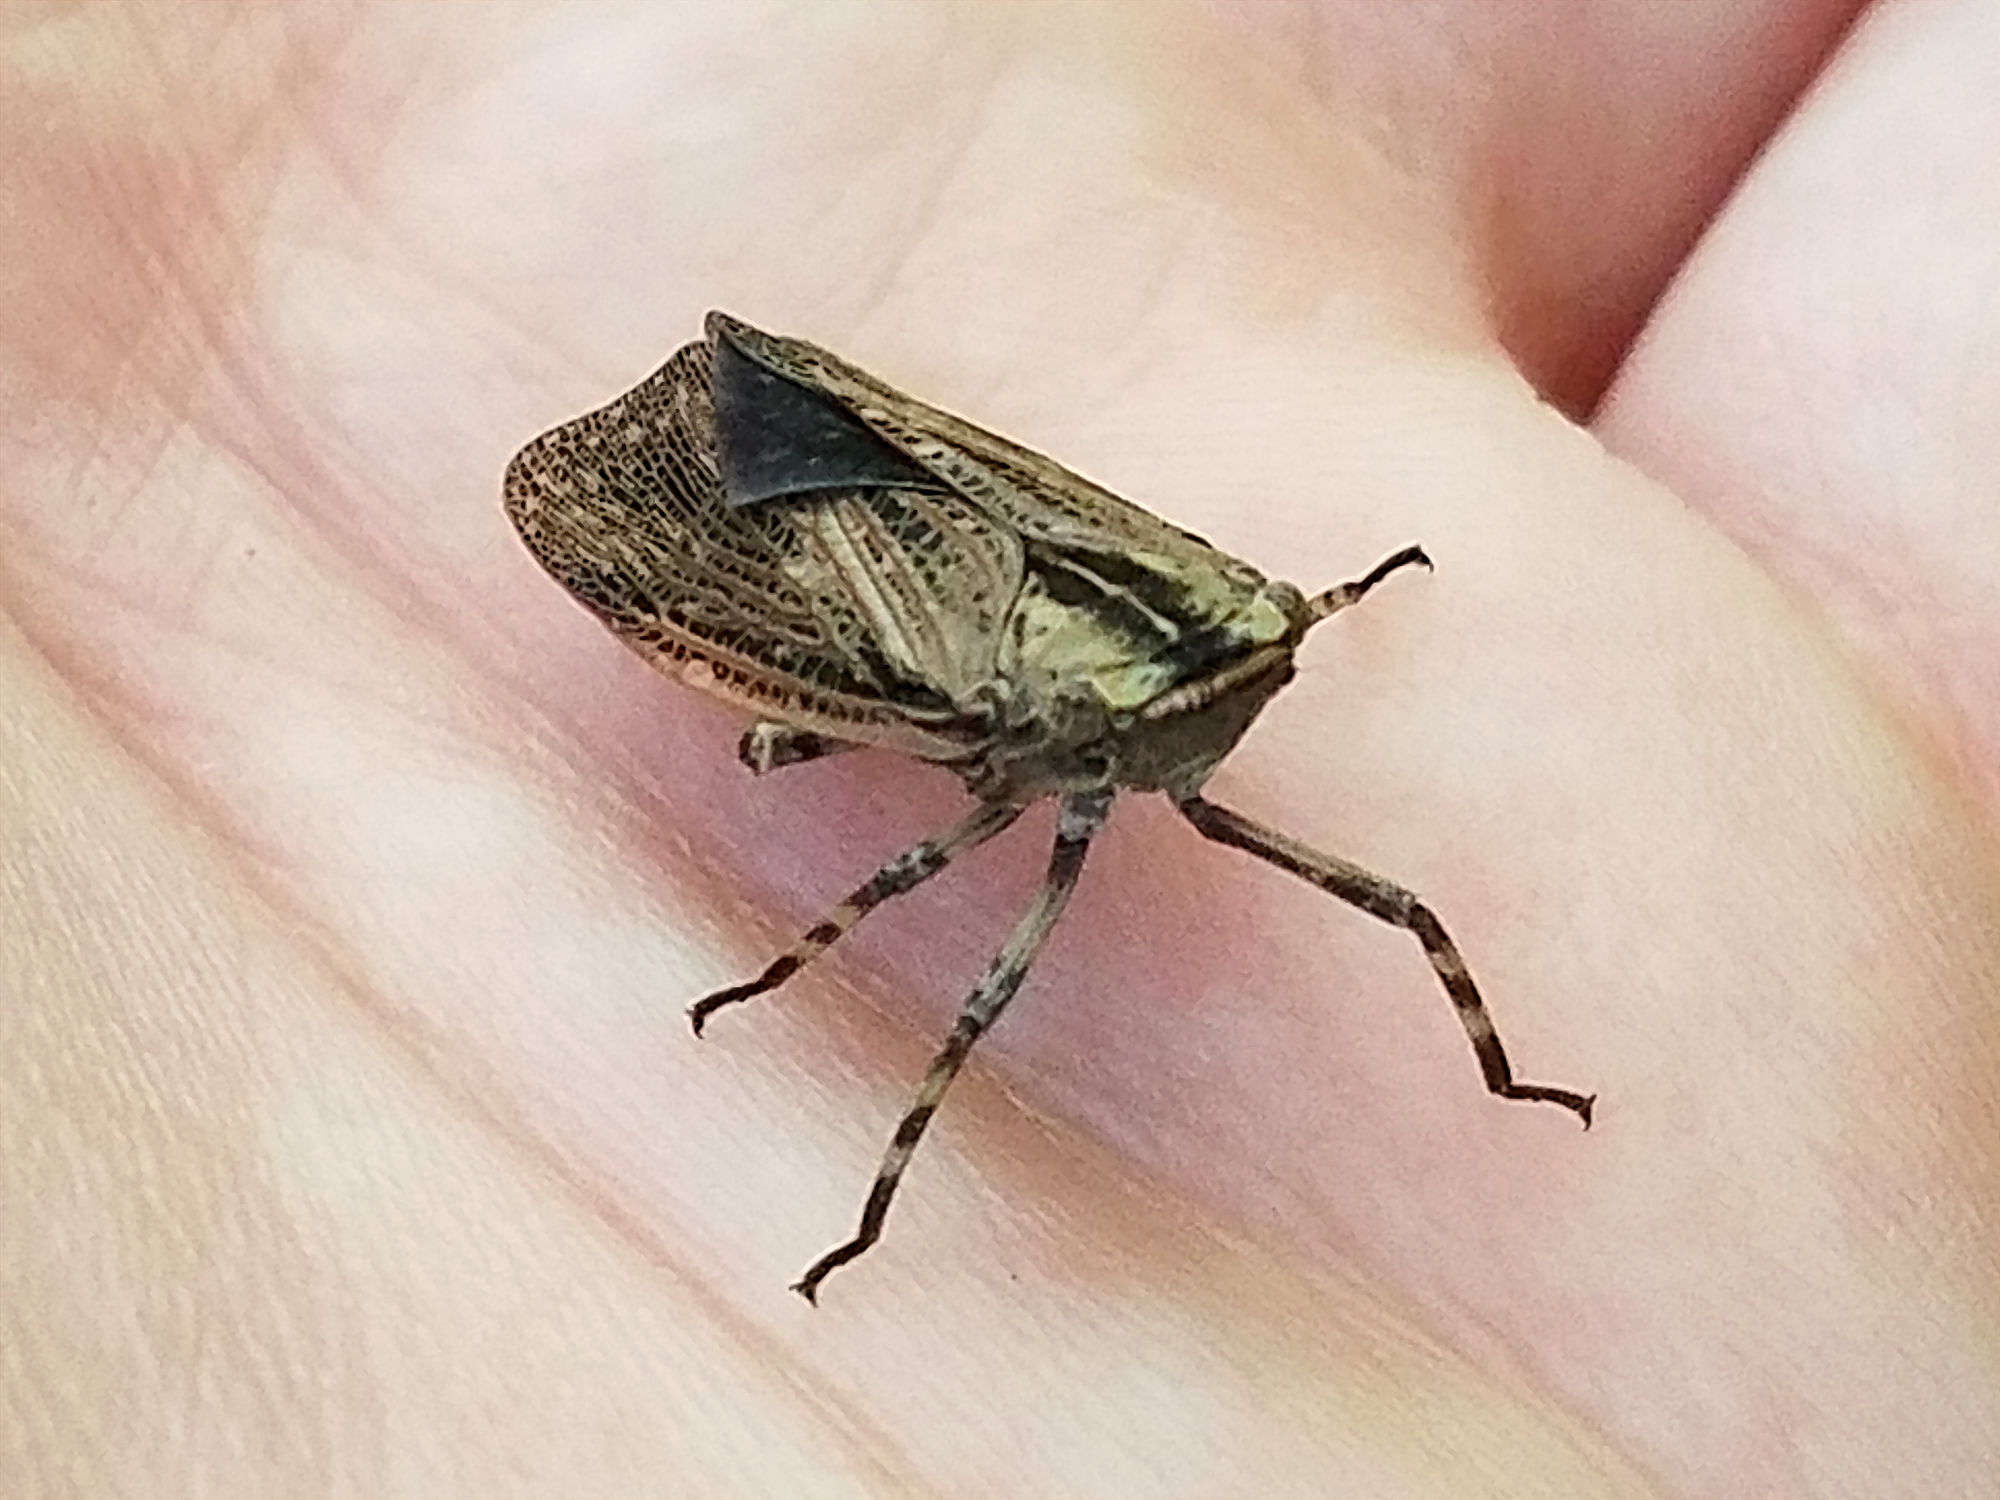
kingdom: Animalia
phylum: Arthropoda
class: Insecta
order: Hemiptera
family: Fulgoridae
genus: Poblicia
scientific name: Poblicia texana
